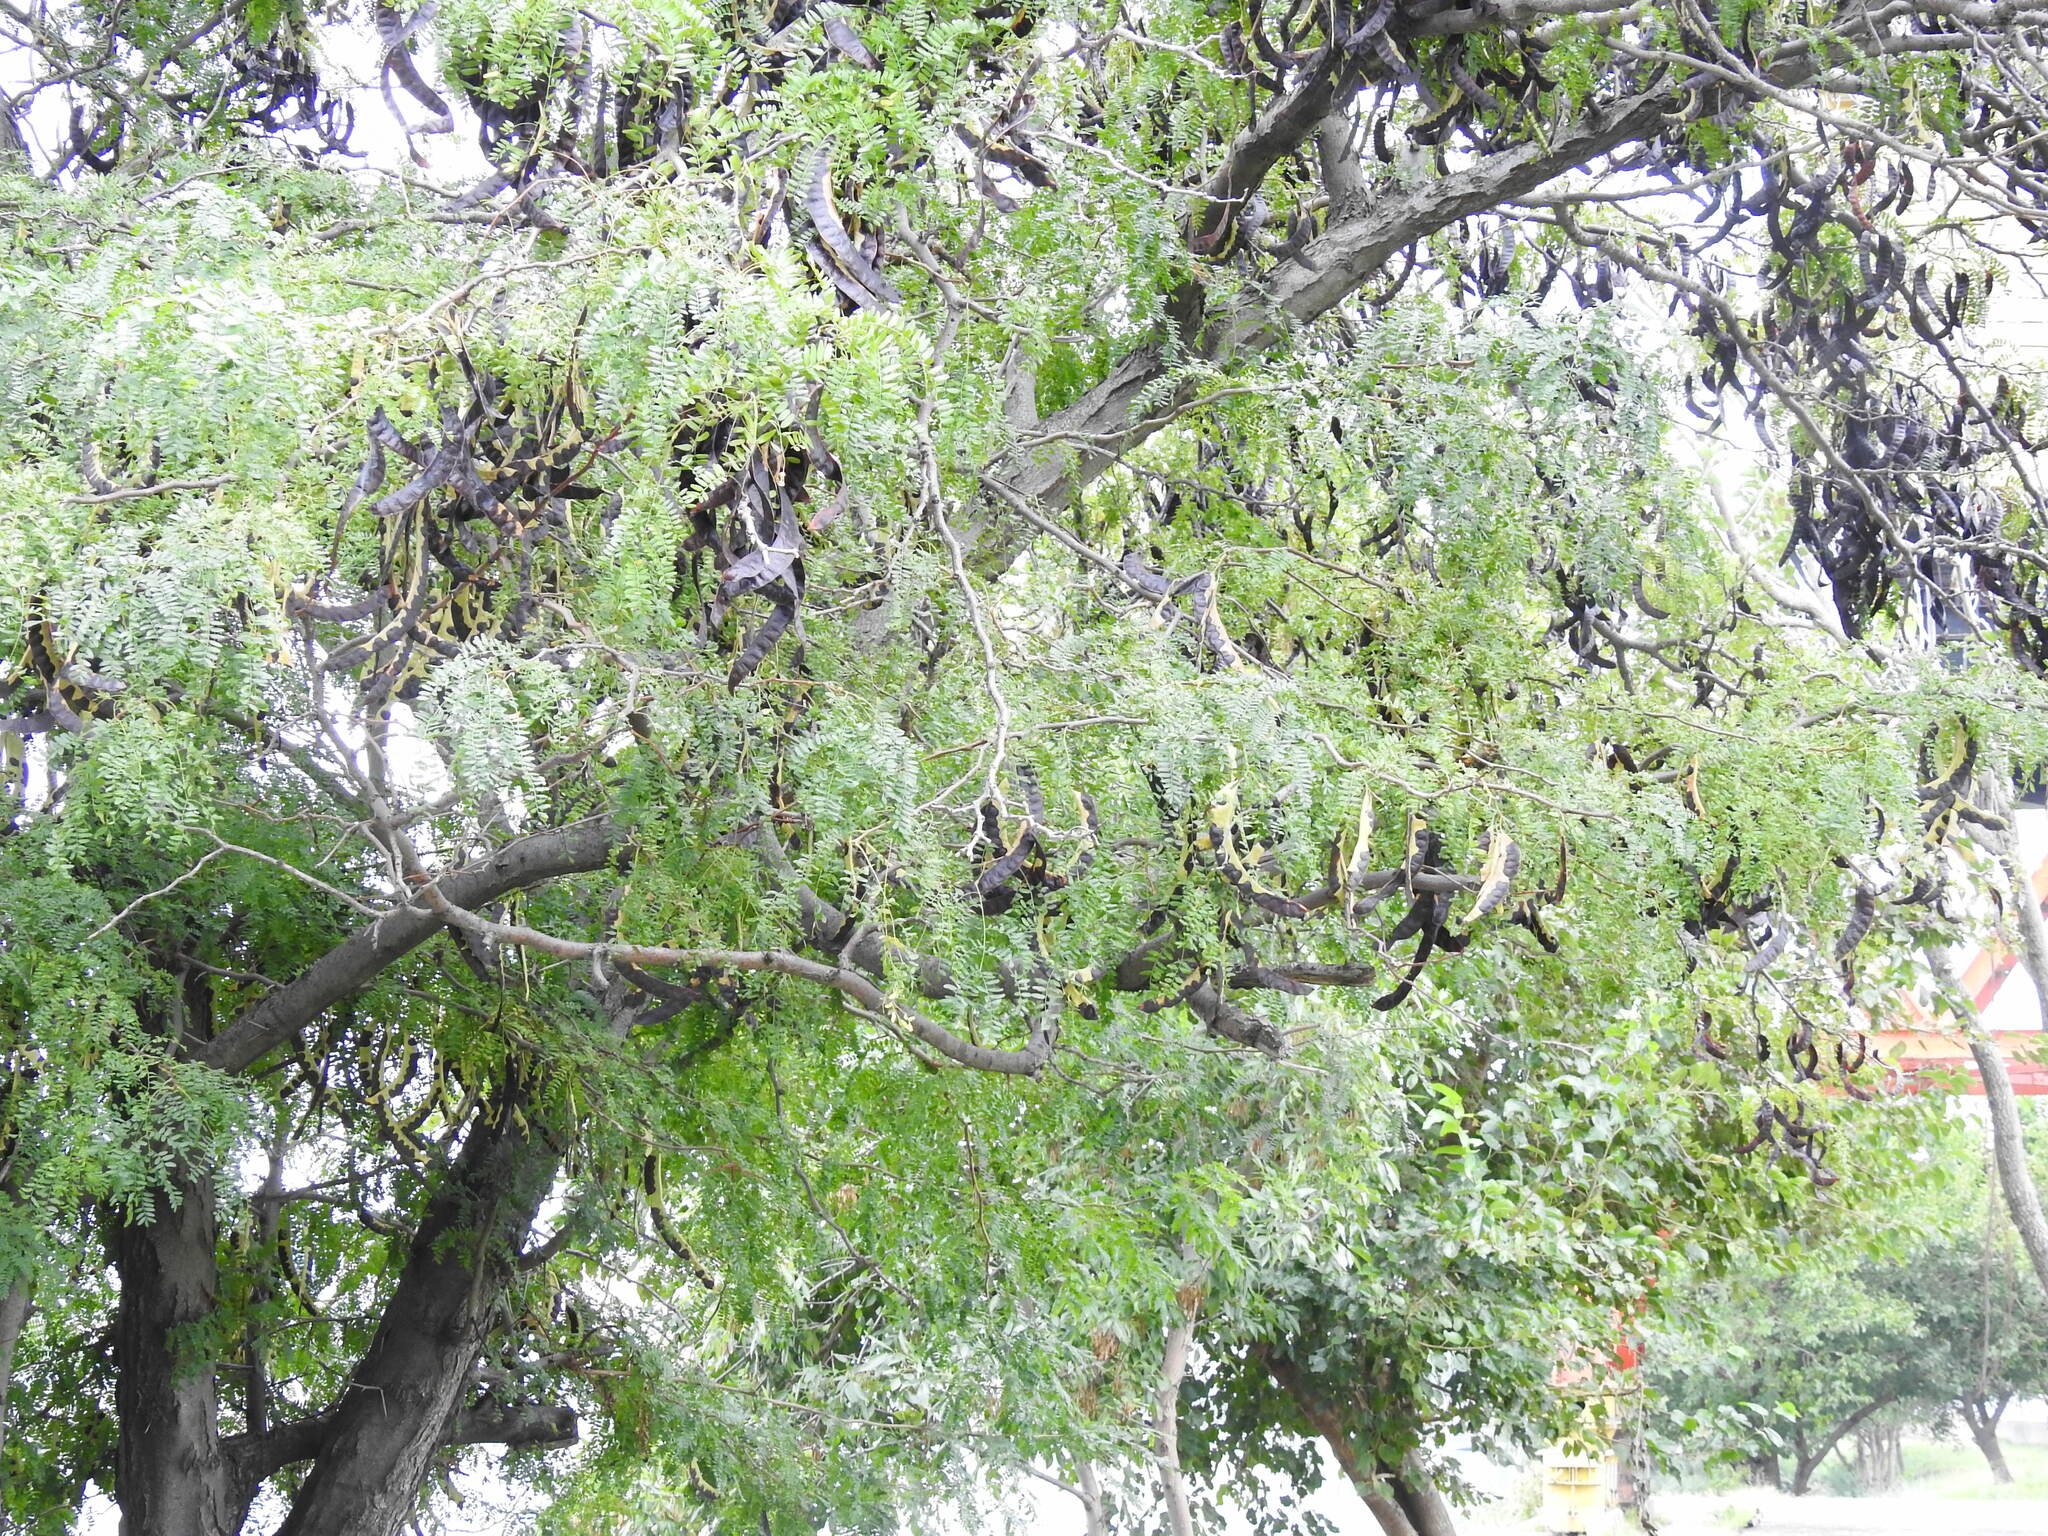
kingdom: Plantae
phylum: Tracheophyta
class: Magnoliopsida
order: Fabales
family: Fabaceae
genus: Gleditsia
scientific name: Gleditsia triacanthos
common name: Common honeylocust
